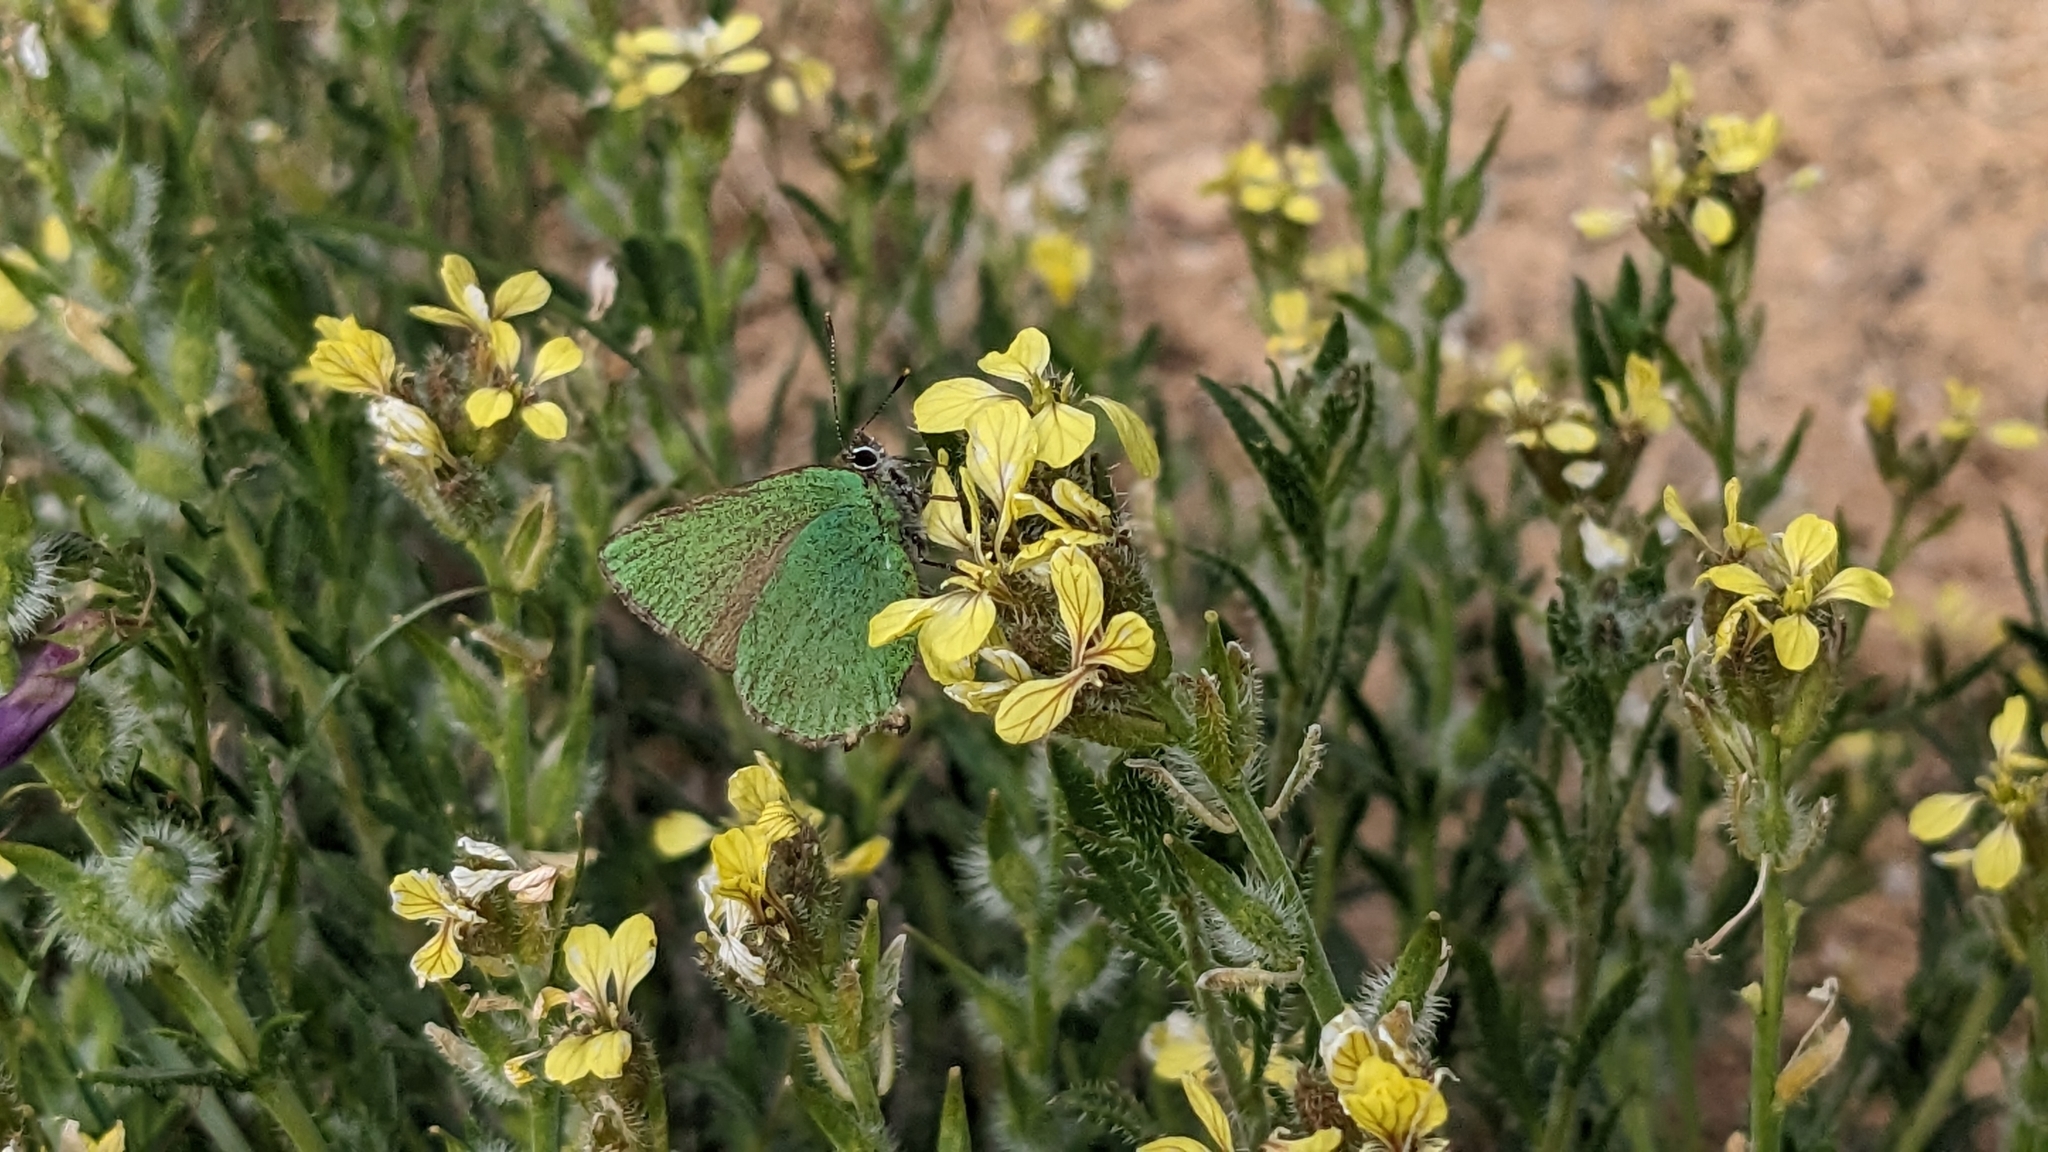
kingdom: Animalia
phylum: Arthropoda
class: Insecta
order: Lepidoptera
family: Lycaenidae
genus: Callophrys
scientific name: Callophrys rubi
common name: Green hairstreak
